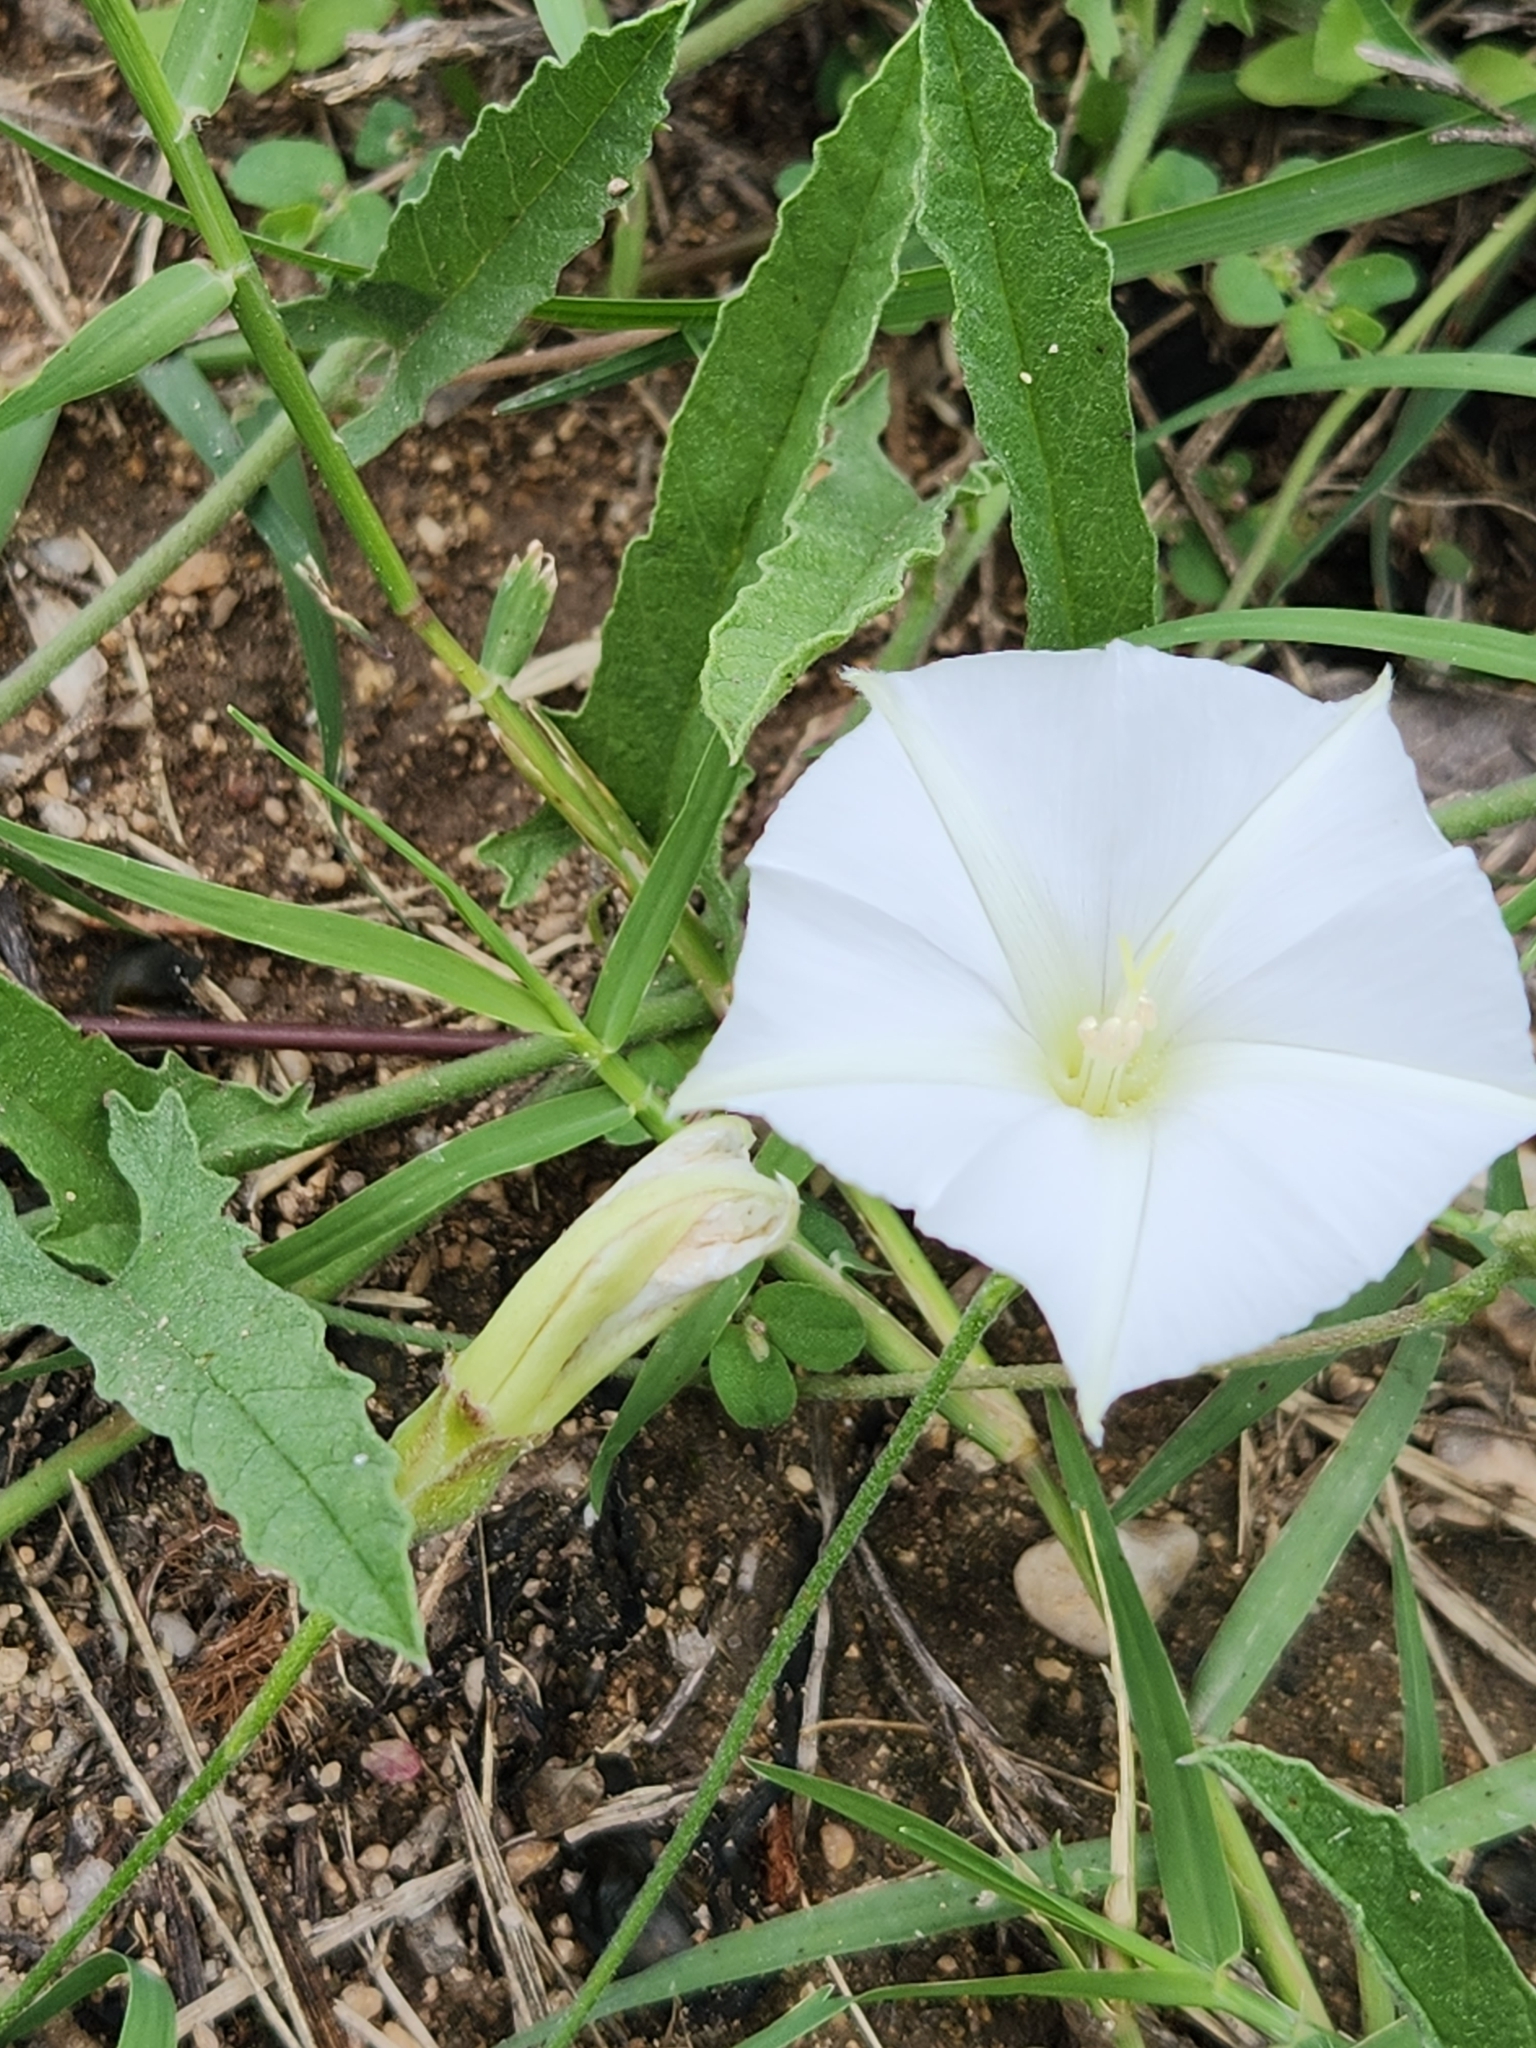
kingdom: Plantae
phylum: Tracheophyta
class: Magnoliopsida
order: Solanales
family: Convolvulaceae
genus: Convolvulus
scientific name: Convolvulus equitans
